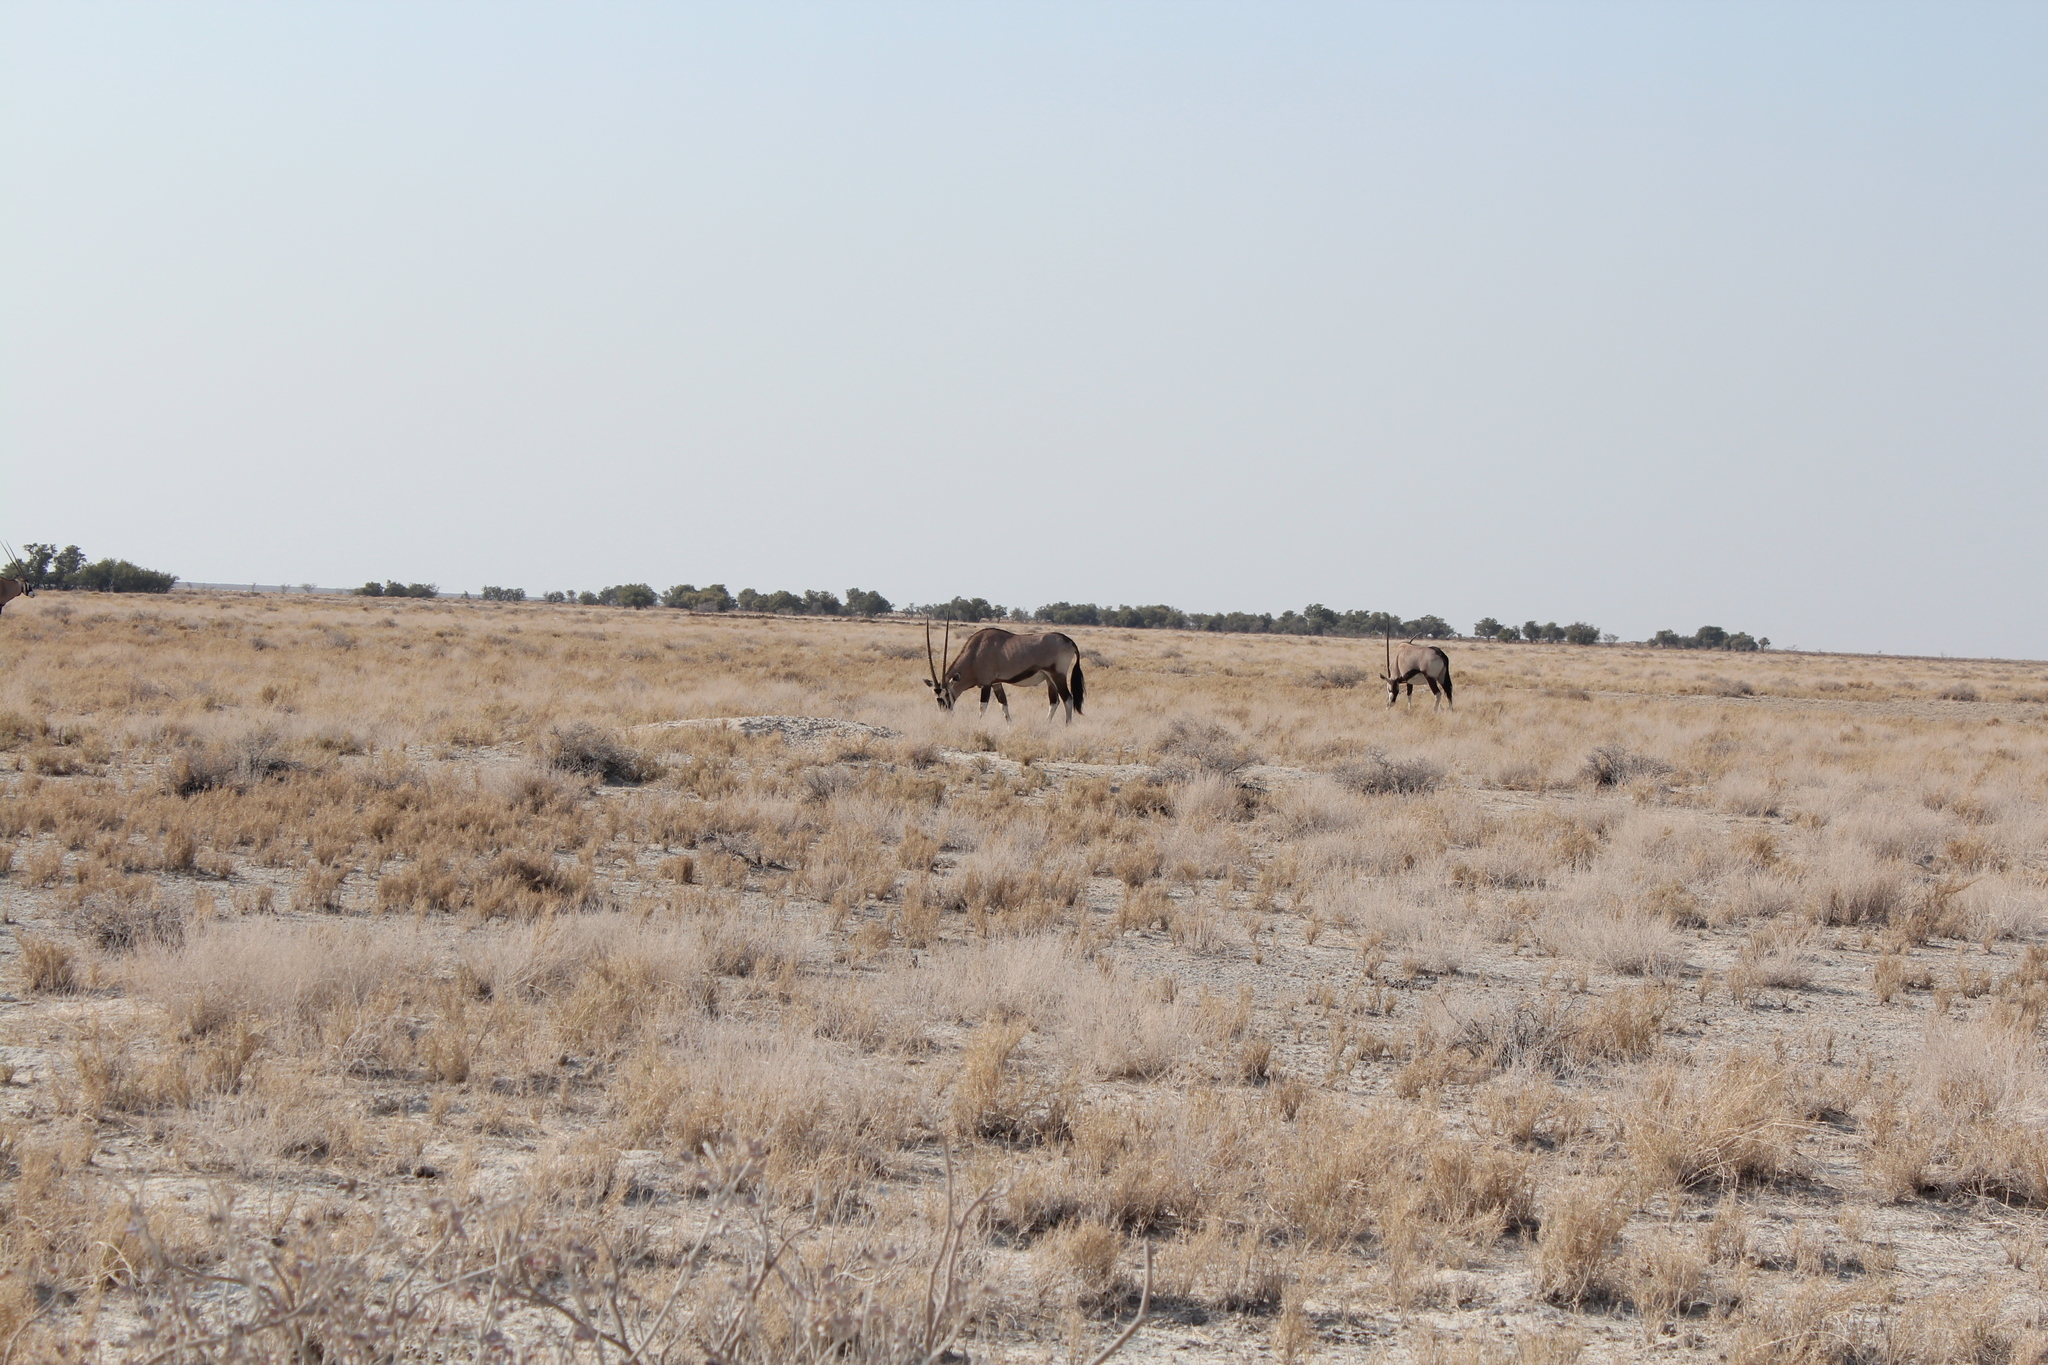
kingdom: Animalia
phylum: Chordata
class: Mammalia
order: Artiodactyla
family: Bovidae
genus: Oryx
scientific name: Oryx gazella
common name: Gemsbok
